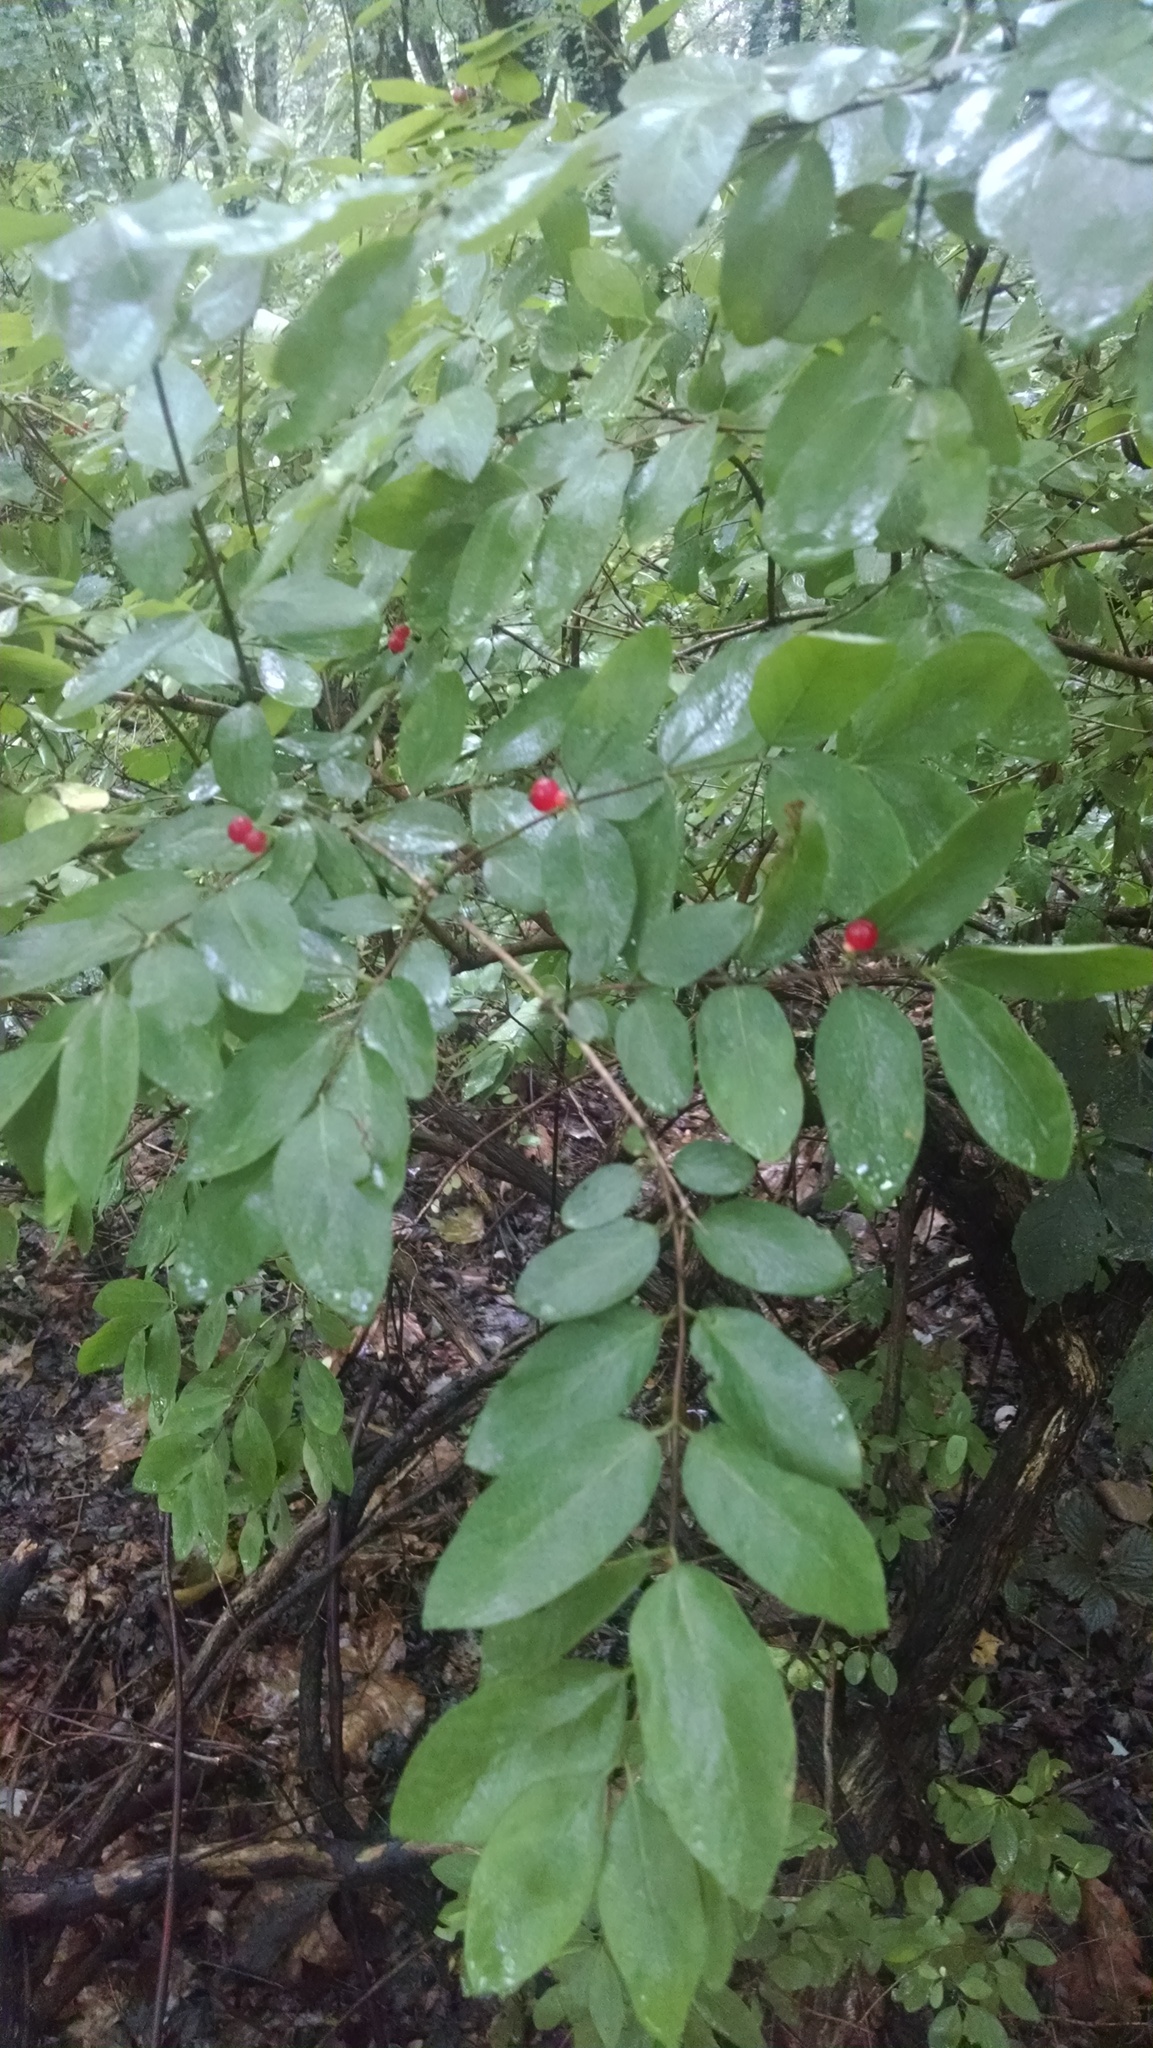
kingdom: Plantae
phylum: Tracheophyta
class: Magnoliopsida
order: Dipsacales
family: Caprifoliaceae
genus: Lonicera
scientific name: Lonicera maackii
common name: Amur honeysuckle
